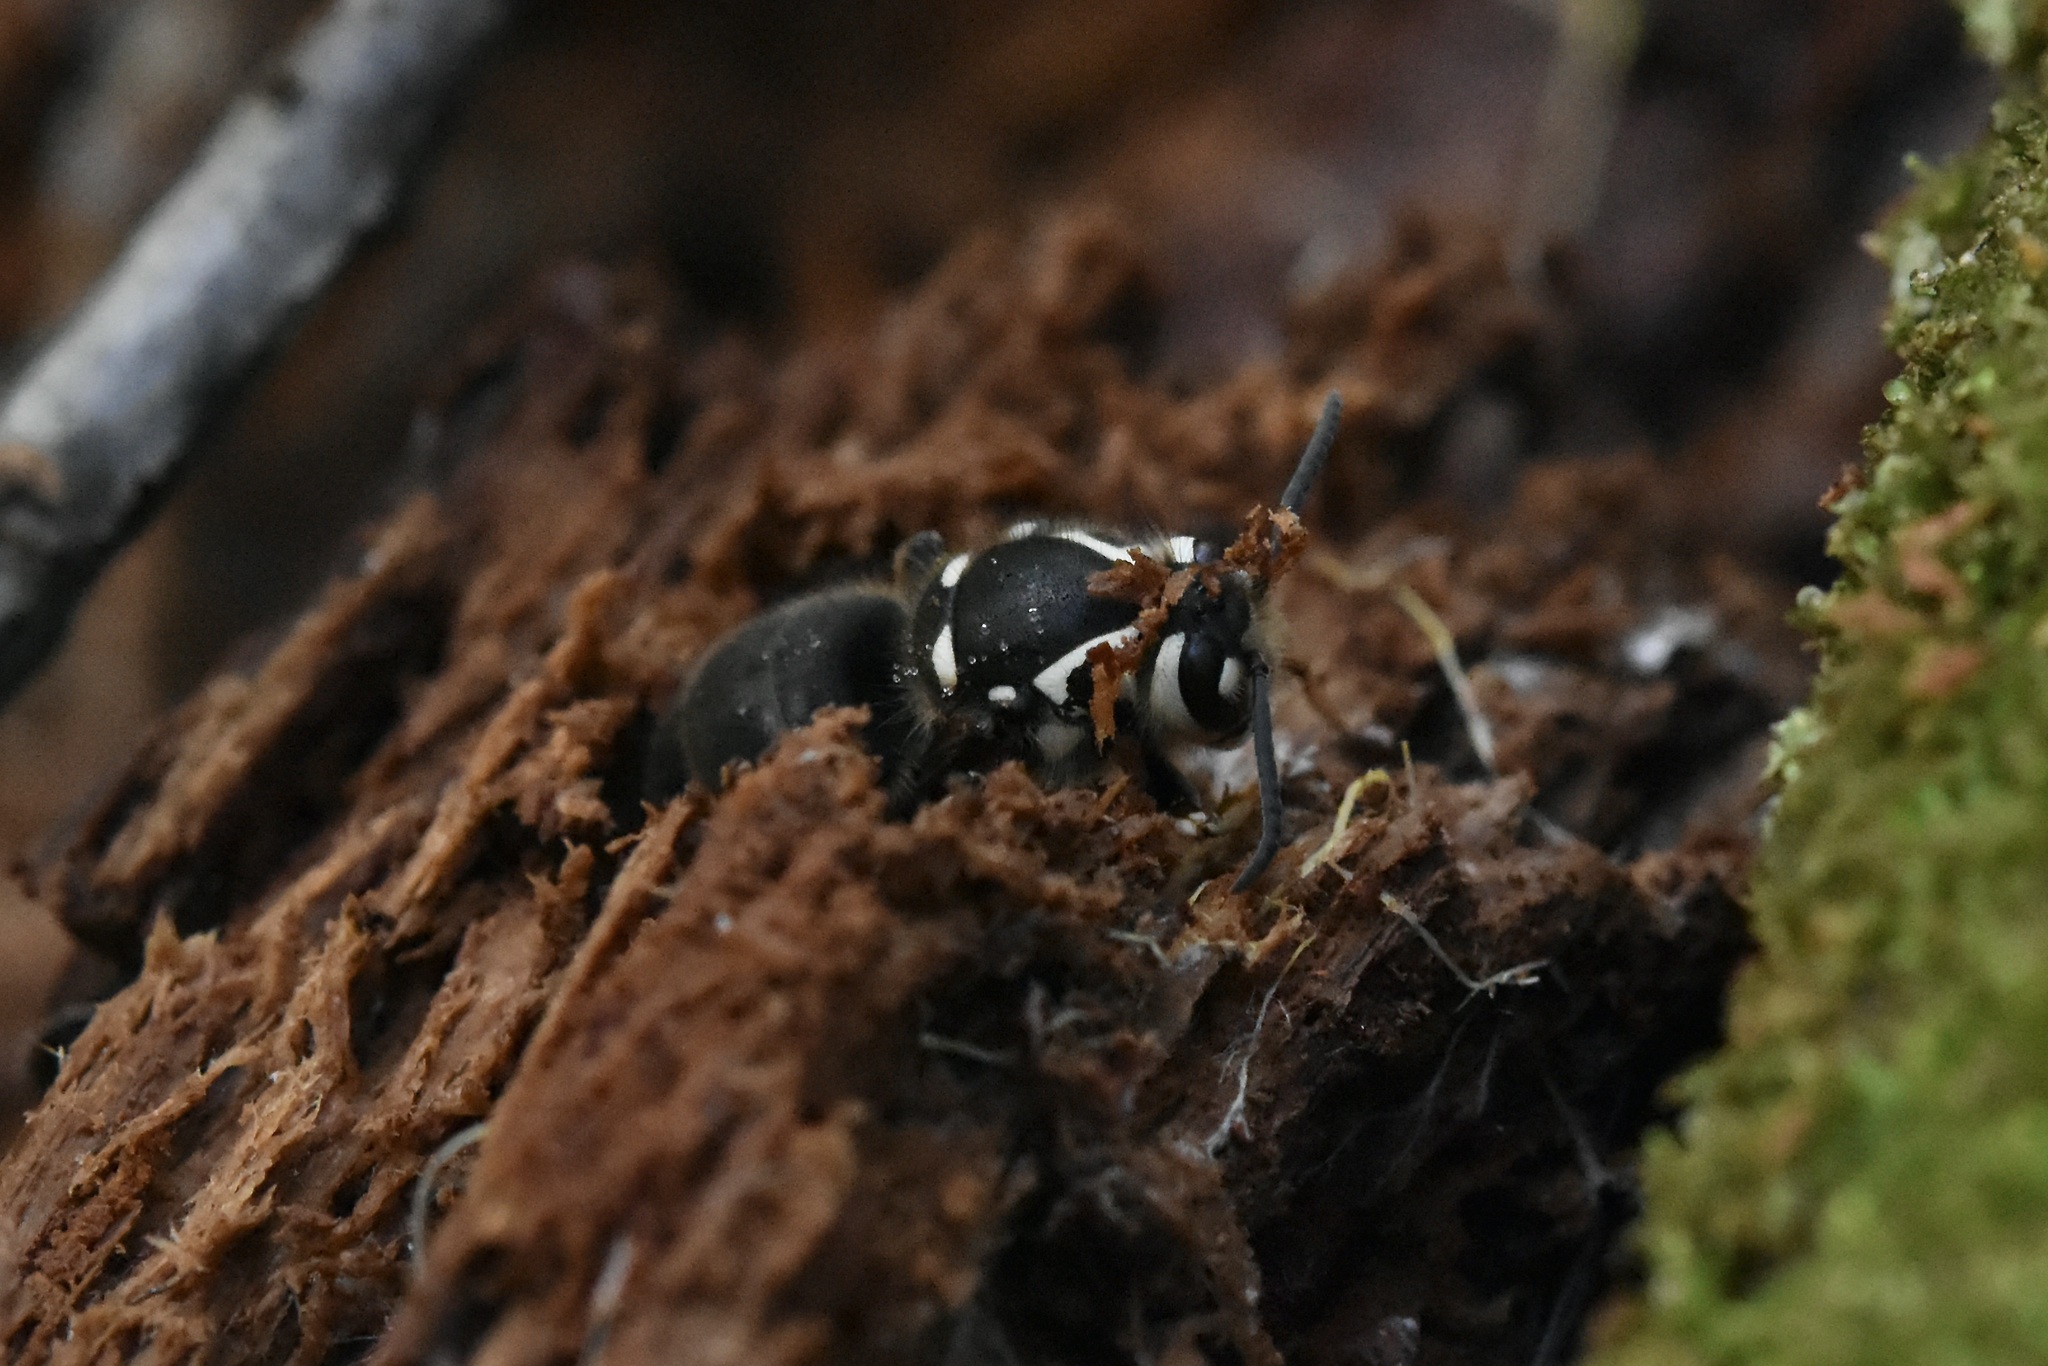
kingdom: Animalia
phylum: Arthropoda
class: Insecta
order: Hymenoptera
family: Vespidae
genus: Dolichovespula
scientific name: Dolichovespula maculata
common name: Bald-faced hornet
